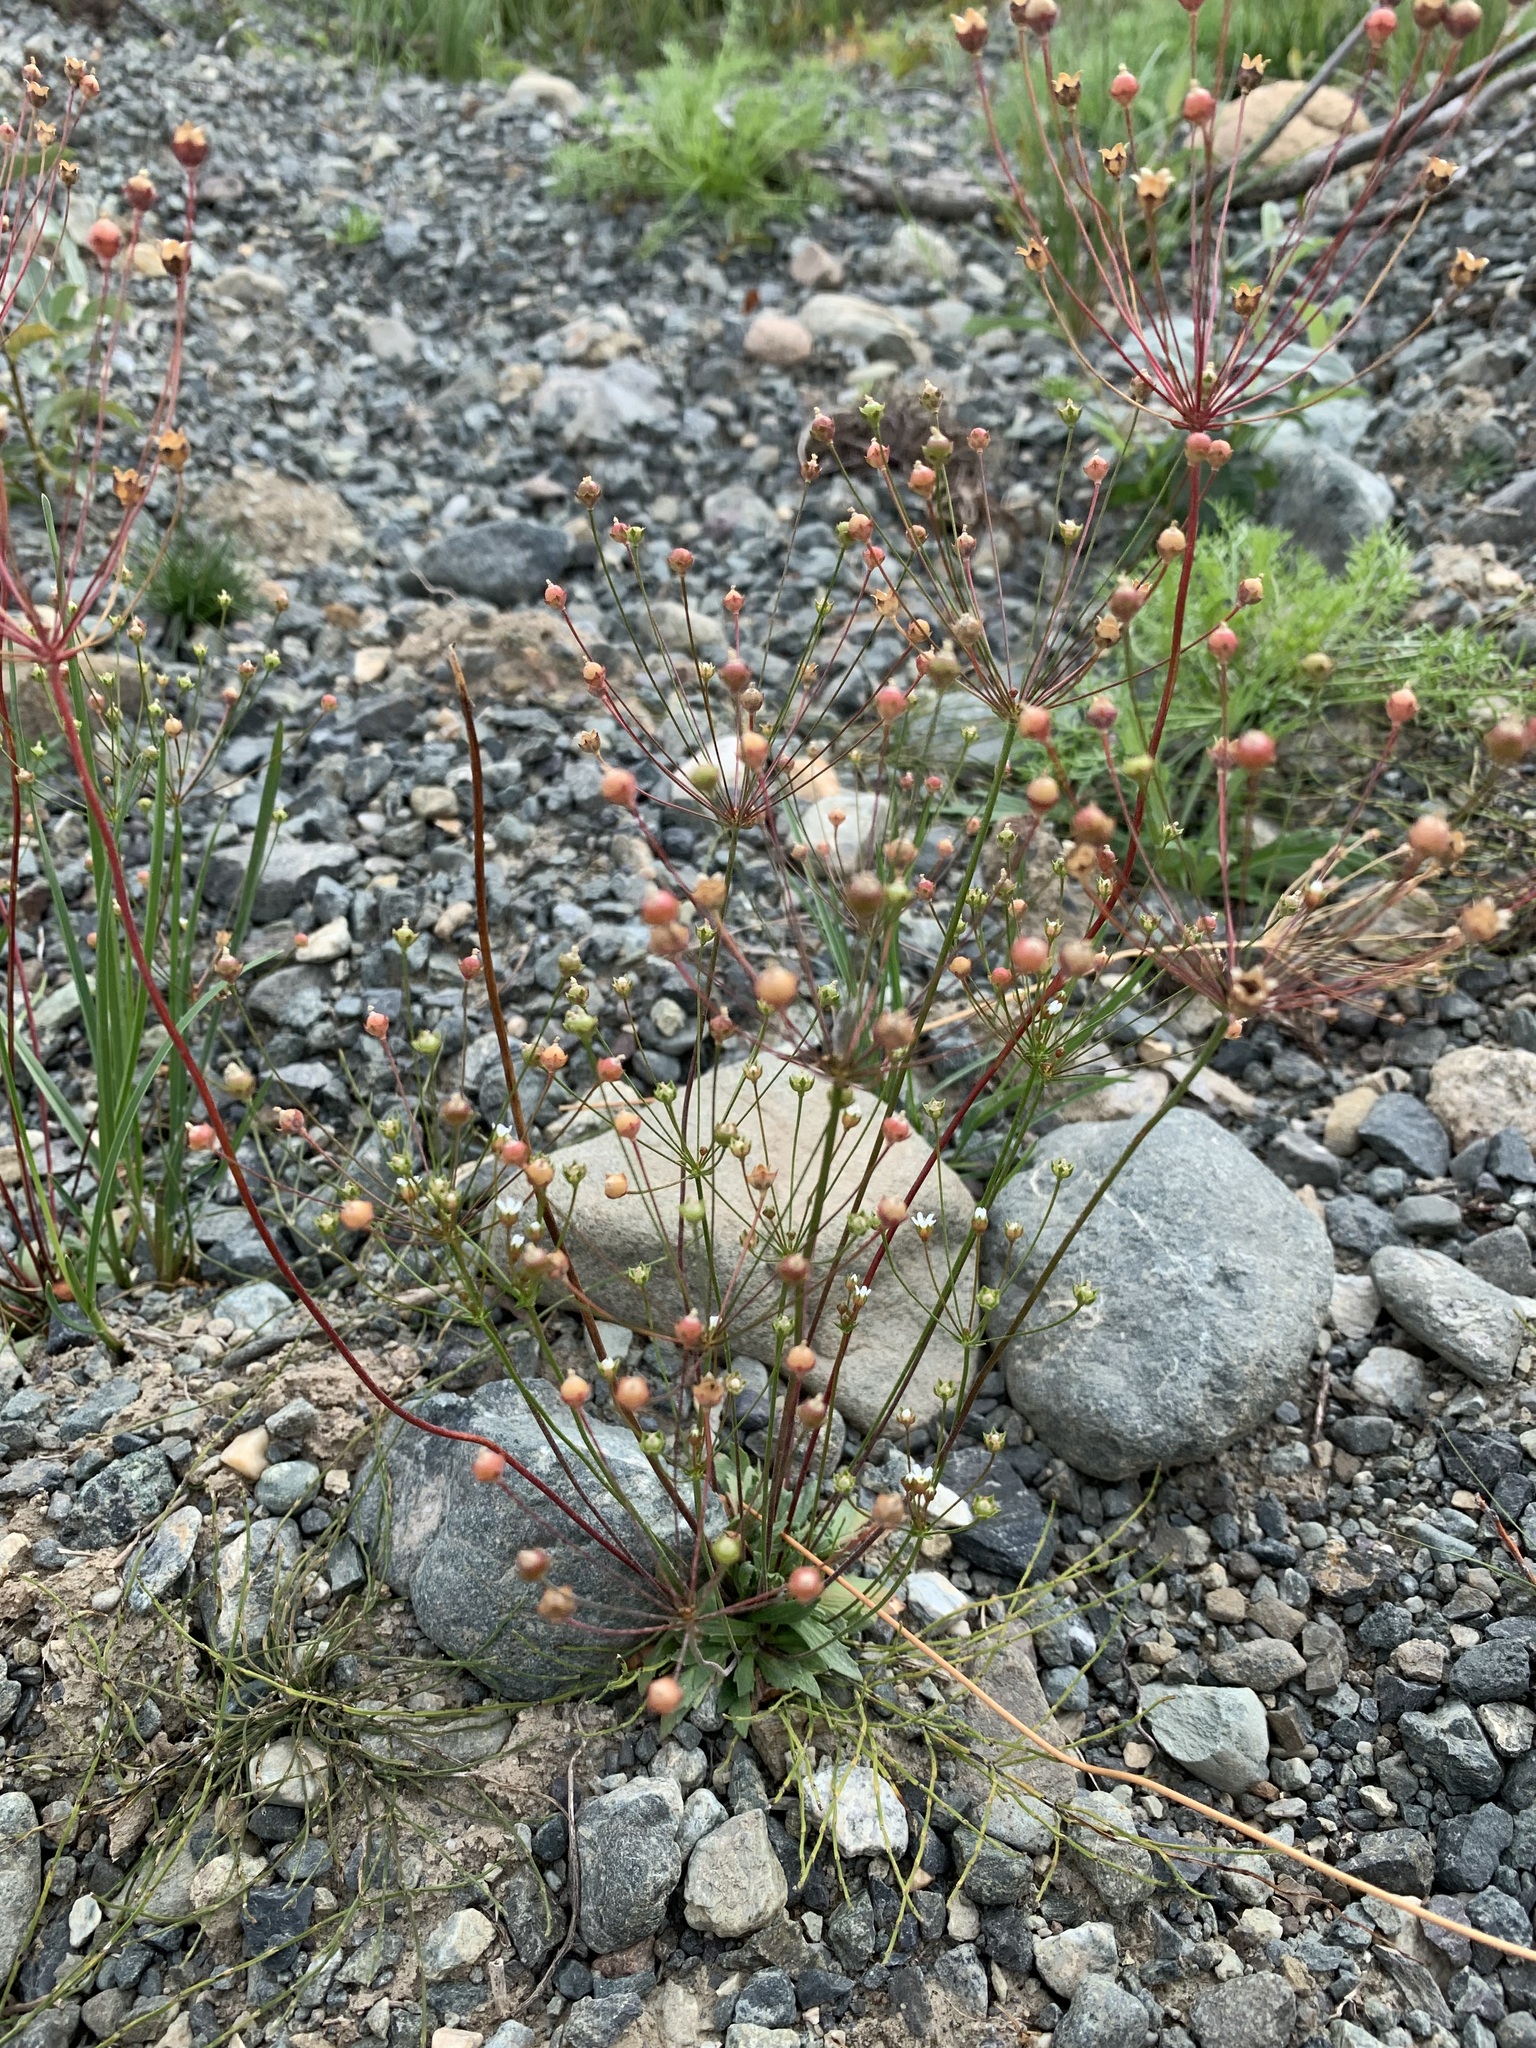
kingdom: Plantae
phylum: Tracheophyta
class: Magnoliopsida
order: Ericales
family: Primulaceae
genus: Androsace
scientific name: Androsace septentrionalis
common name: Hairy northern fairy-candelabra
